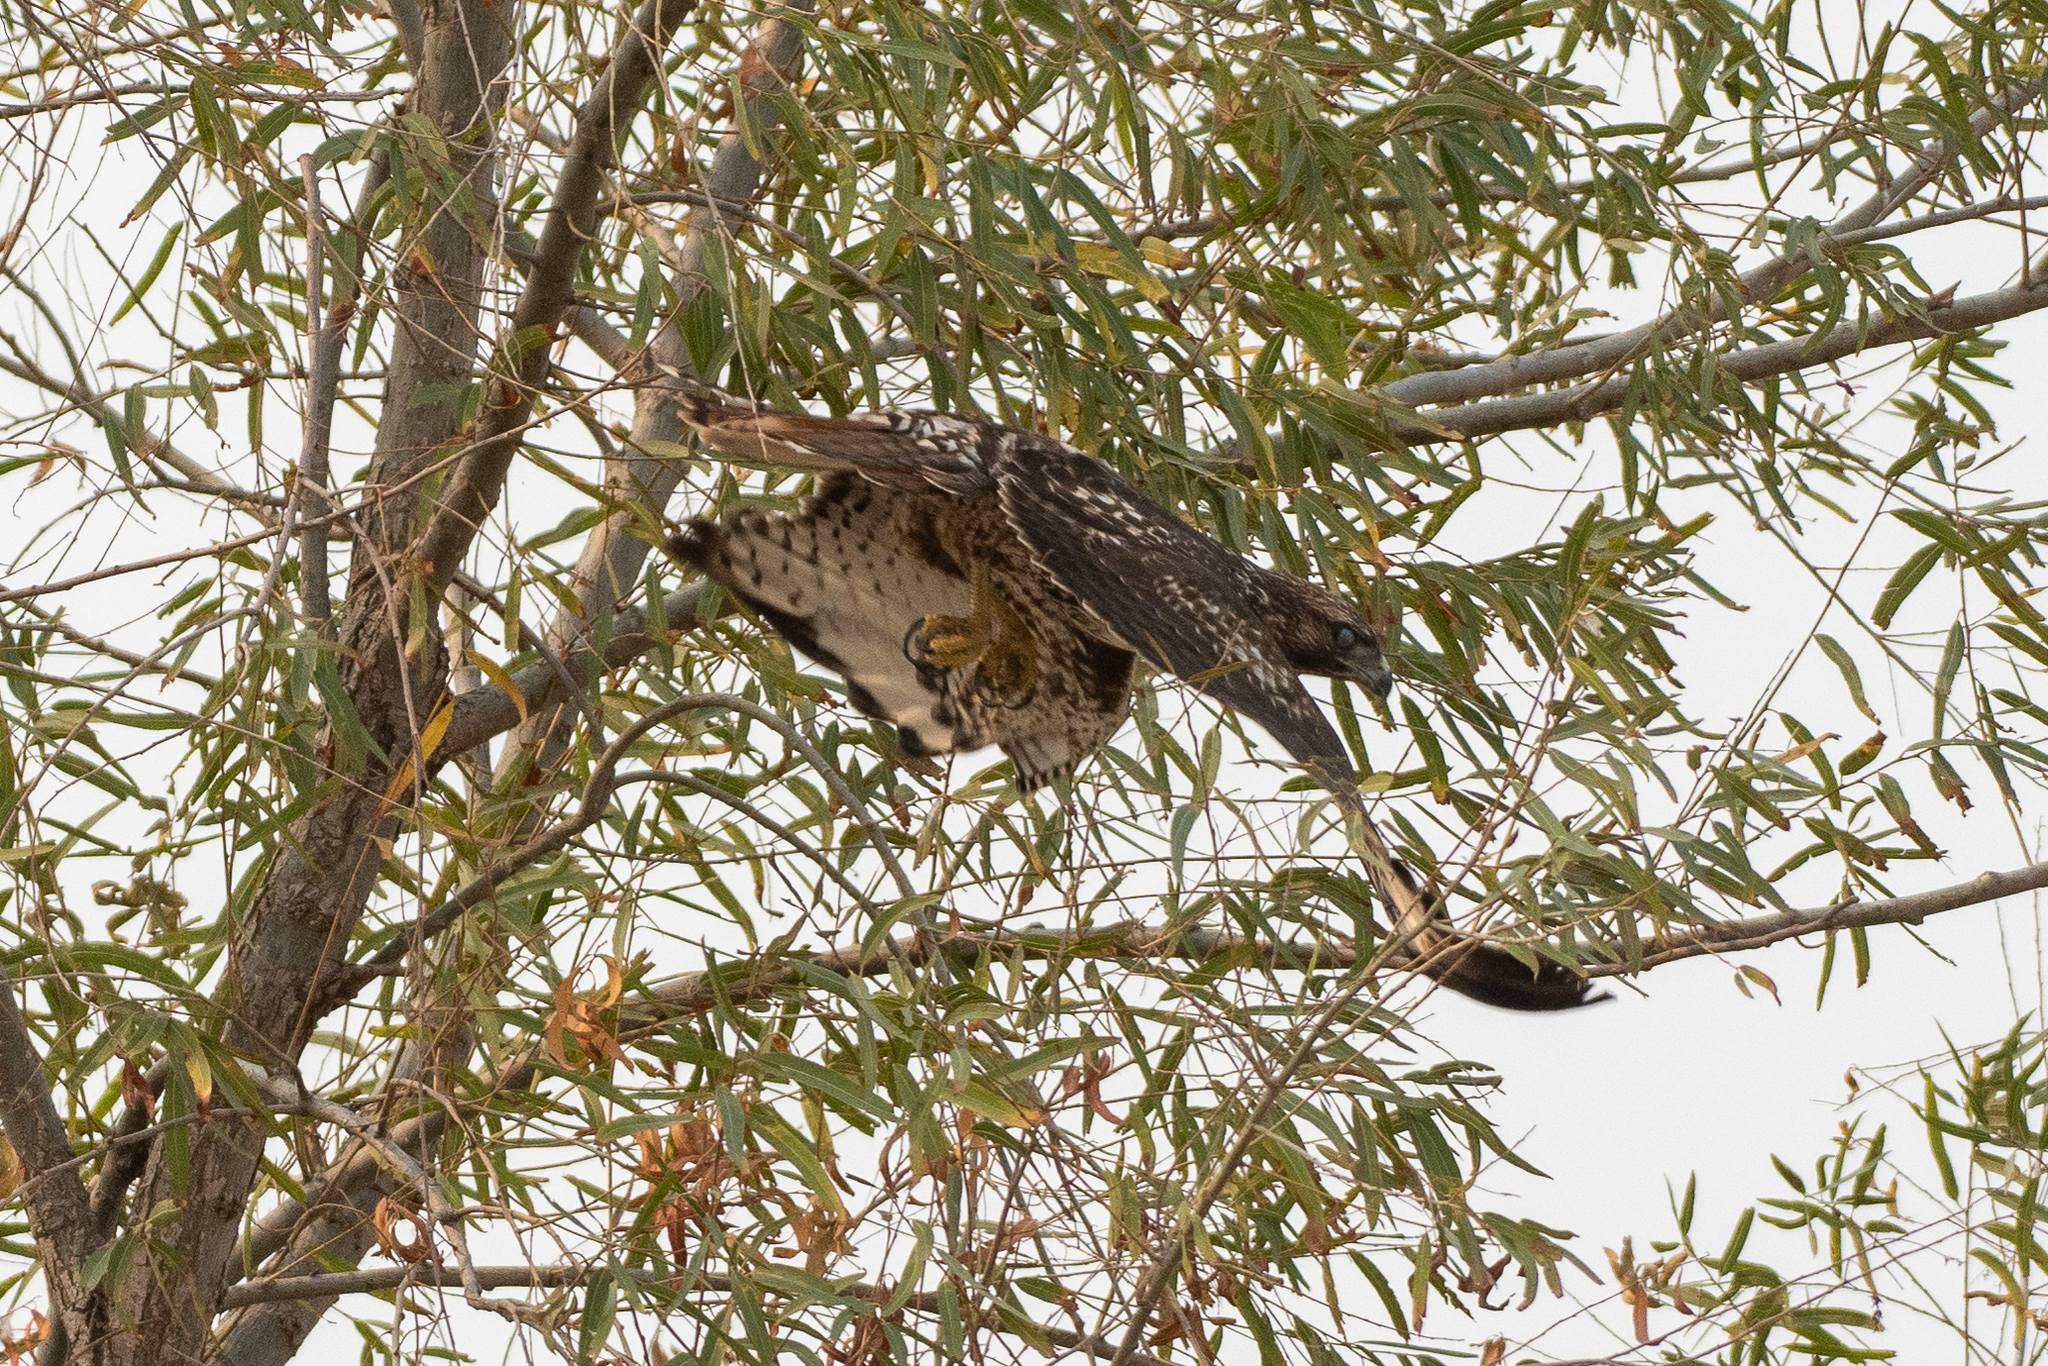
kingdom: Animalia
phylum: Chordata
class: Aves
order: Accipitriformes
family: Accipitridae
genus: Buteo
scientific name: Buteo jamaicensis
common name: Red-tailed hawk
